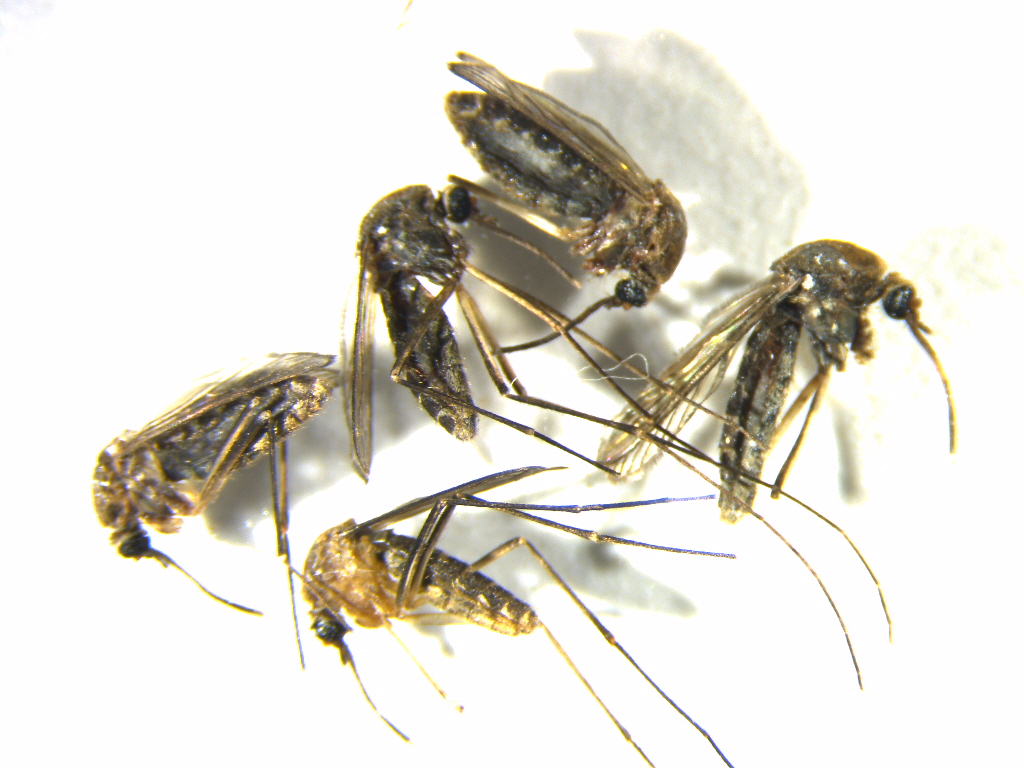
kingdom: Animalia
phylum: Arthropoda
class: Insecta
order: Diptera
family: Culicidae
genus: Culex
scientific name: Culex quinquefasciatus
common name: Southern house mosquito
